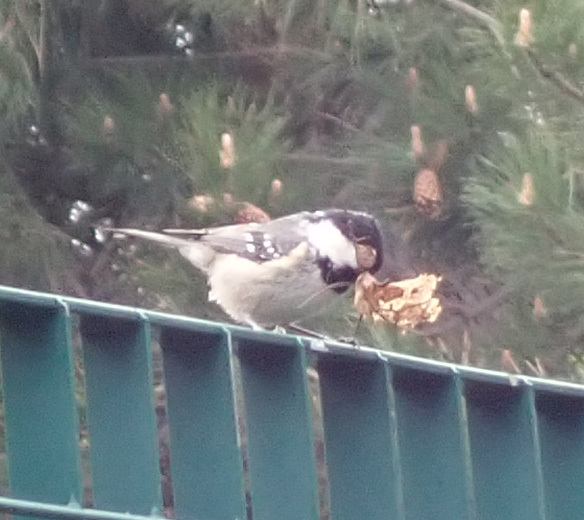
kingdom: Animalia
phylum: Chordata
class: Aves
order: Passeriformes
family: Paridae
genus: Periparus
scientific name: Periparus ater
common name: Coal tit
